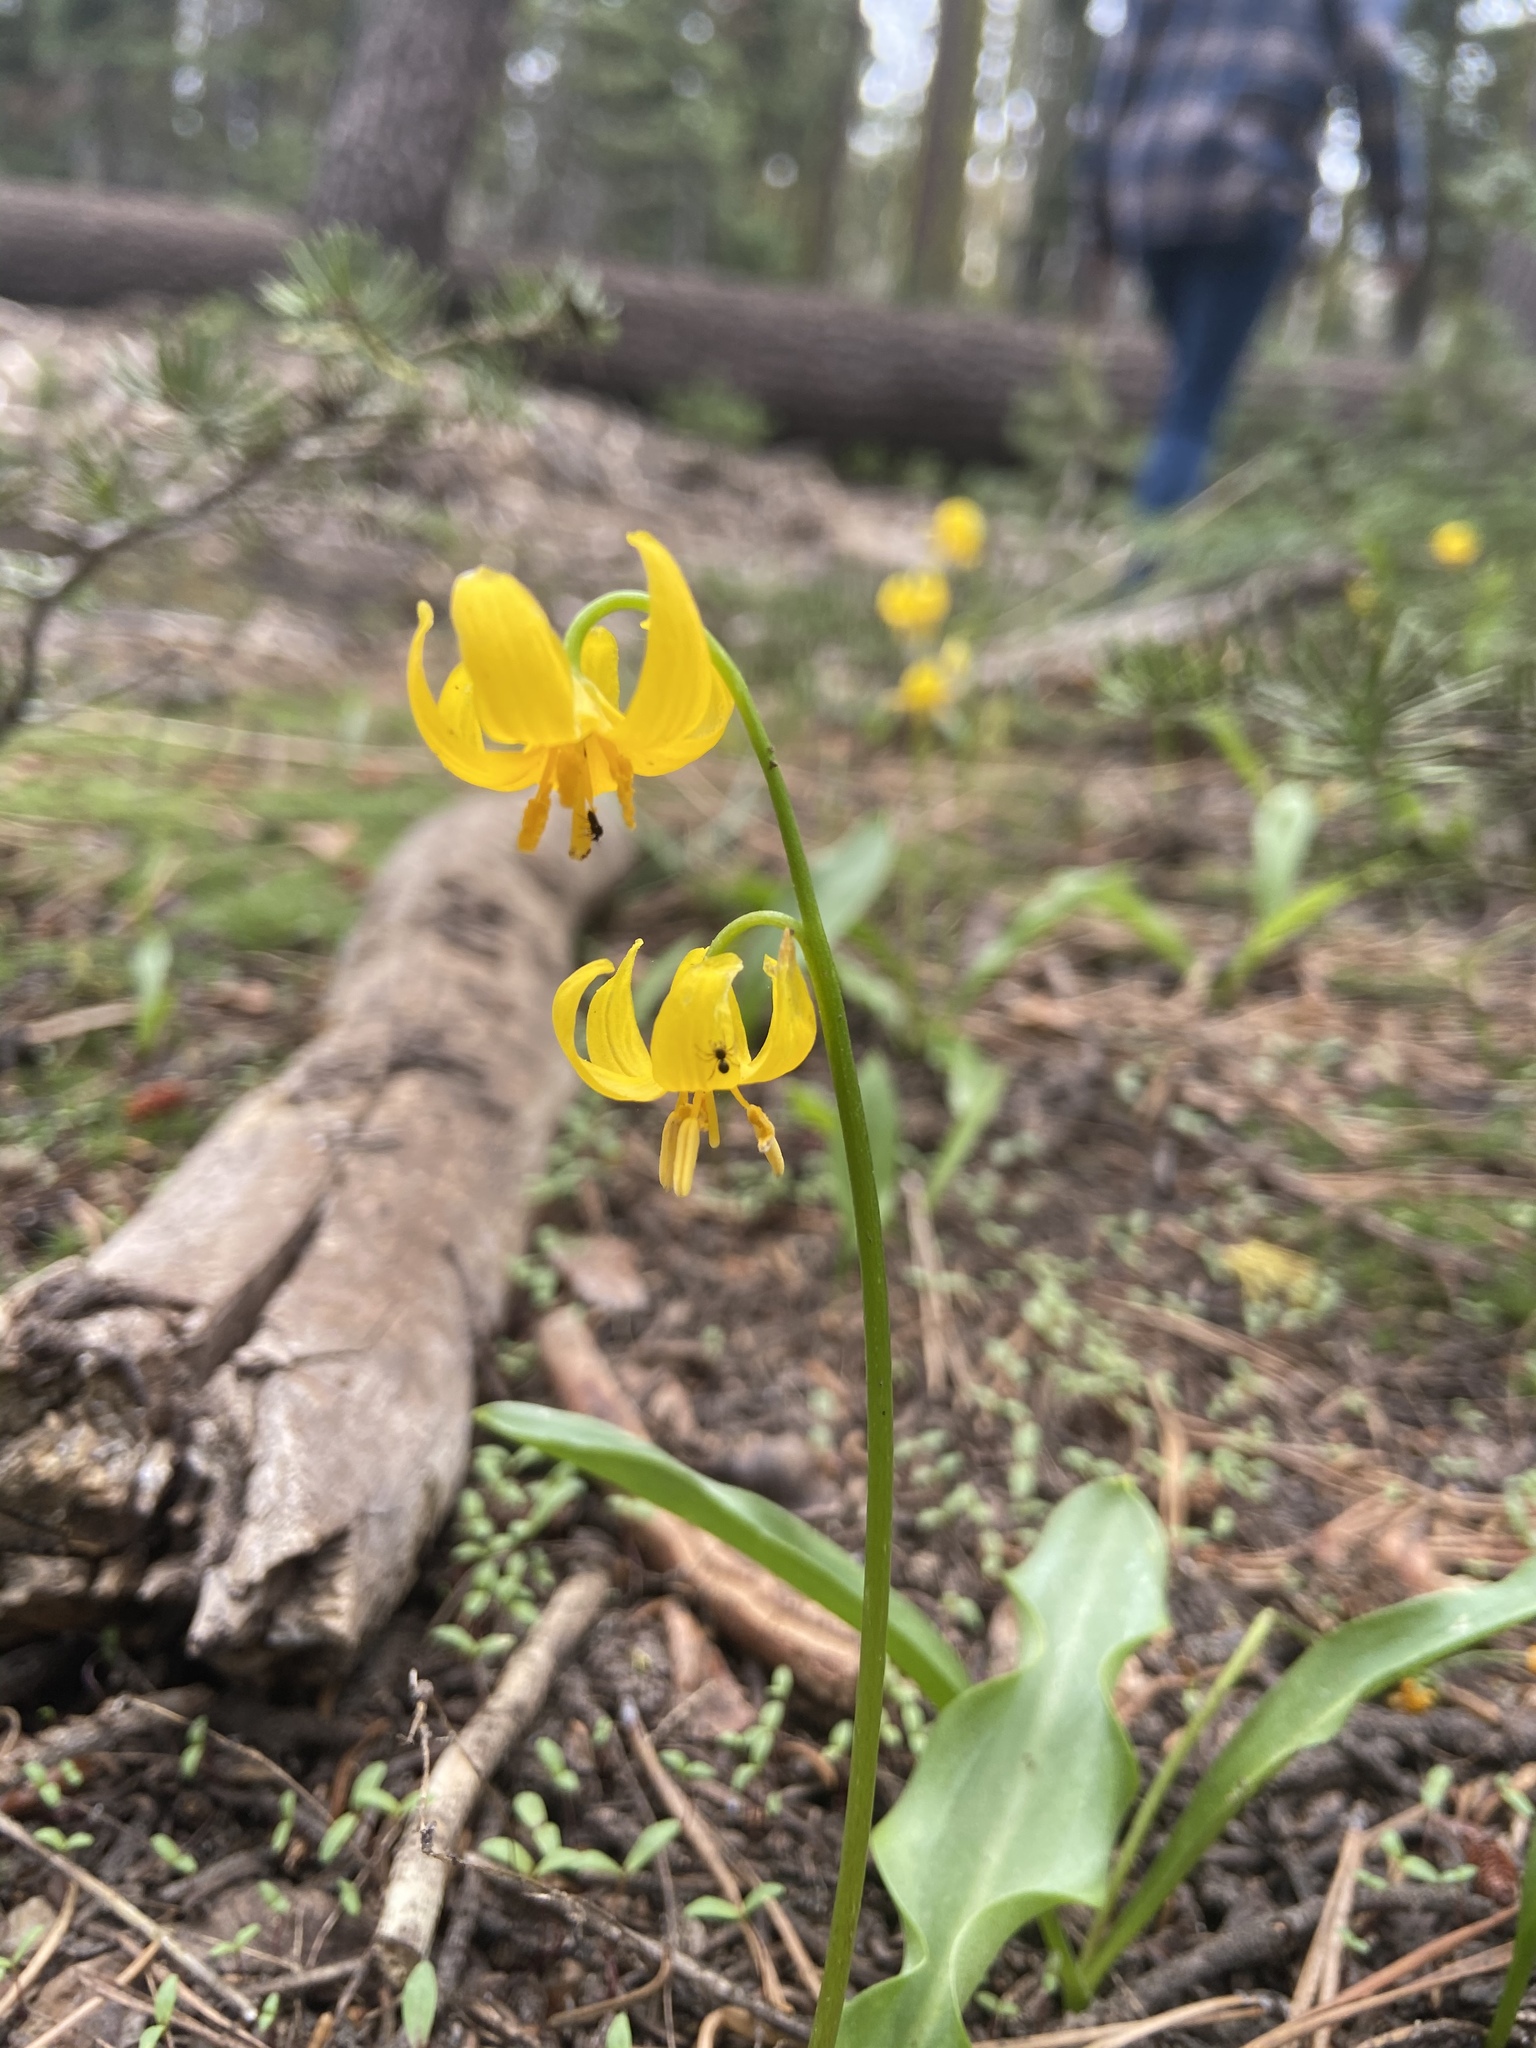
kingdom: Plantae
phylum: Tracheophyta
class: Liliopsida
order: Liliales
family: Liliaceae
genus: Erythronium
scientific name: Erythronium pluriflorum
